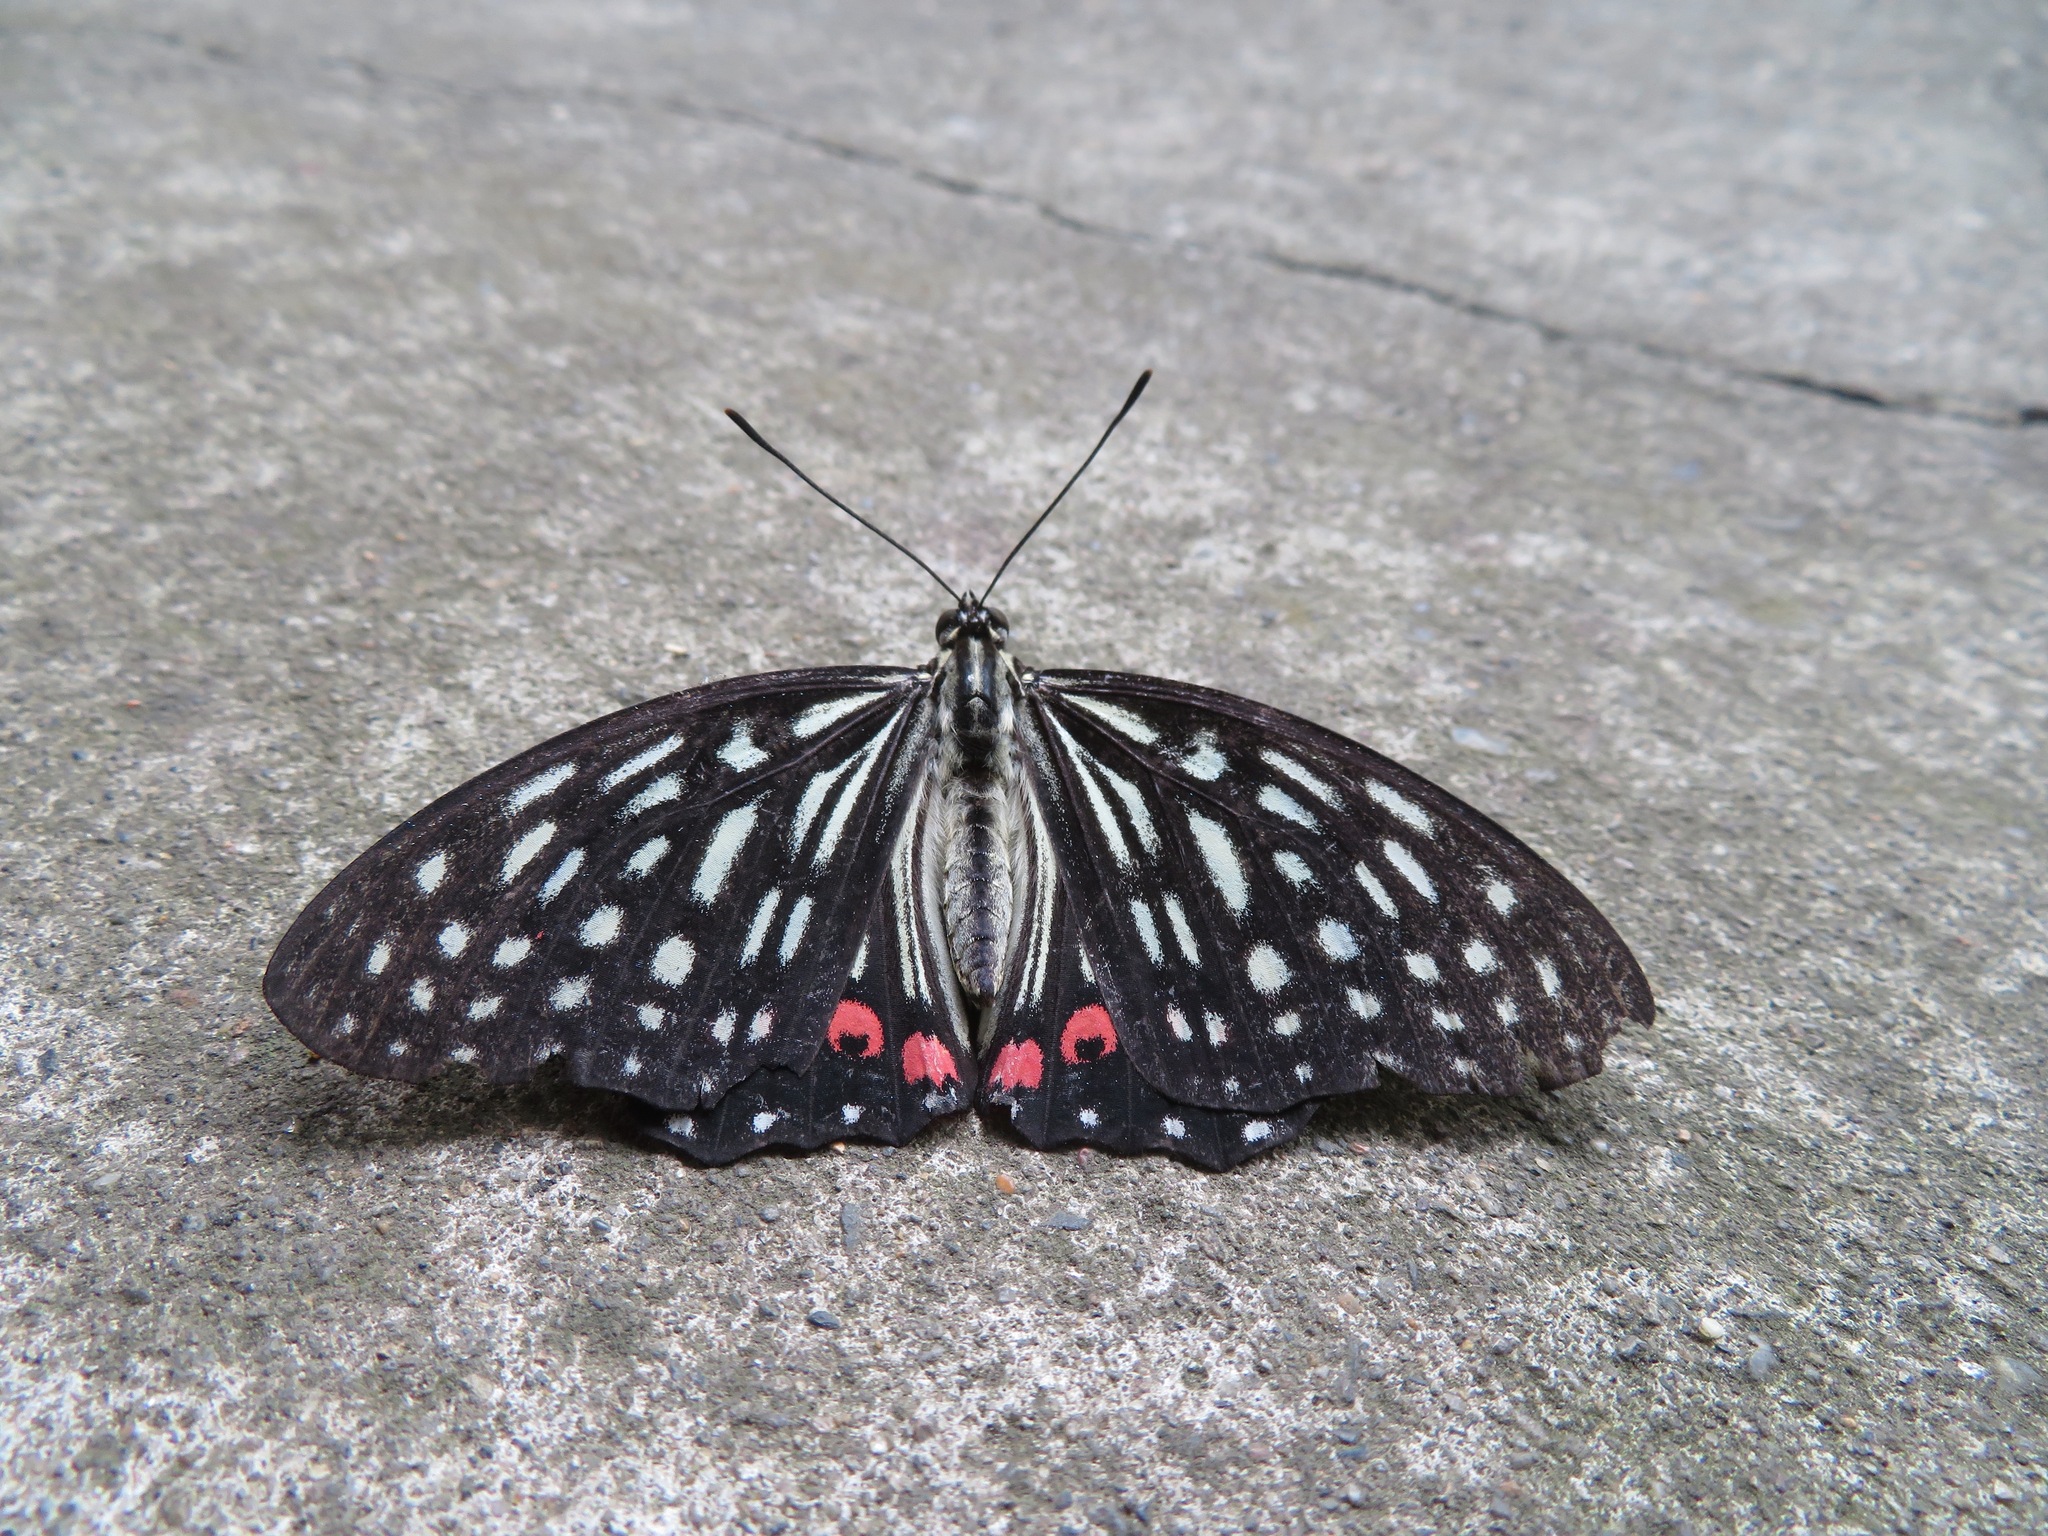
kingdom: Animalia
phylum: Arthropoda
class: Insecta
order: Lepidoptera
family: Nymphalidae
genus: Hestina
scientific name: Hestina assimilis
